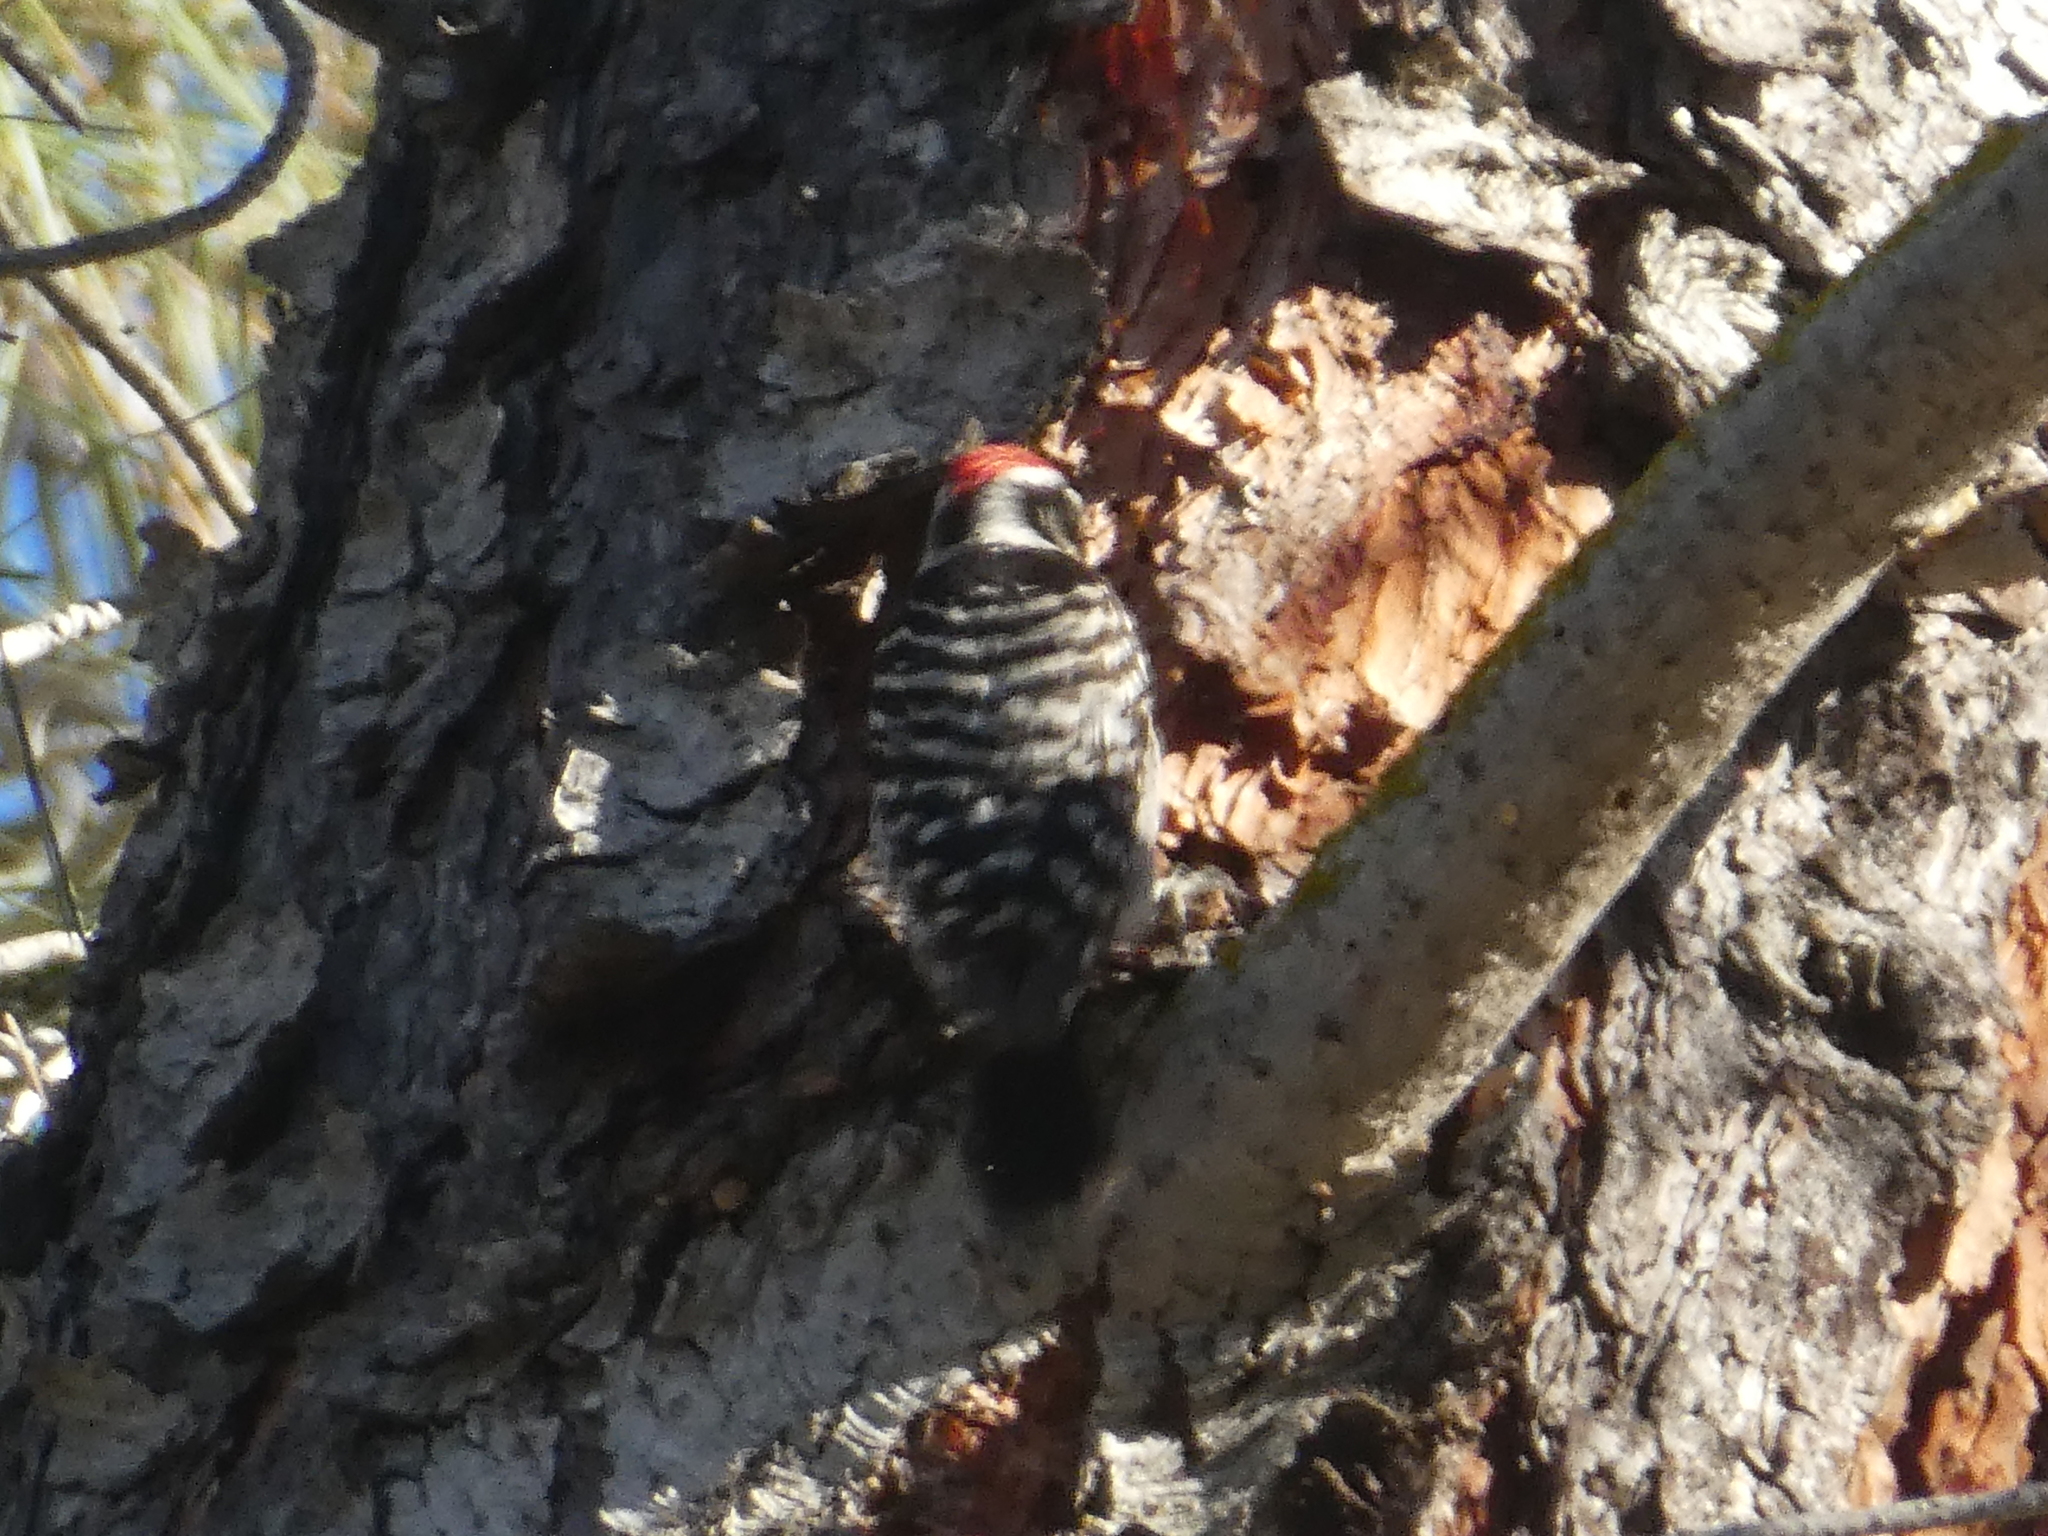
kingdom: Animalia
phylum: Chordata
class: Aves
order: Piciformes
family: Picidae
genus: Dryobates
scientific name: Dryobates nuttallii
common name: Nuttall's woodpecker
